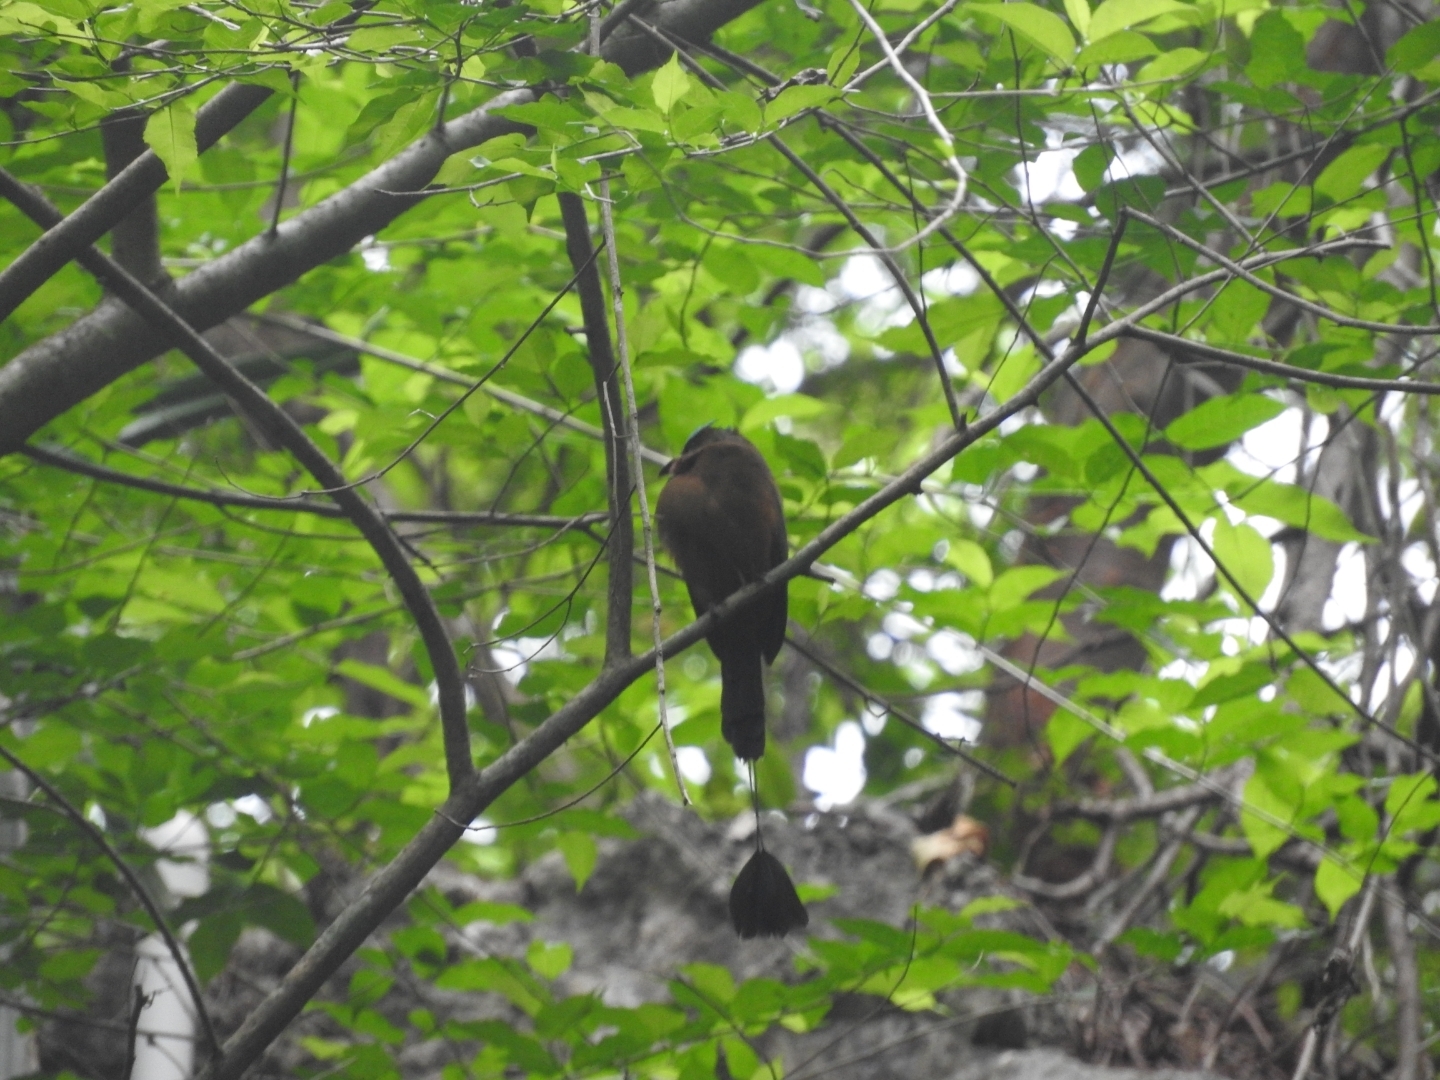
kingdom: Animalia
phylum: Chordata
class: Aves
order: Coraciiformes
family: Momotidae
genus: Eumomota
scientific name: Eumomota superciliosa
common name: Turquoise-browed motmot
